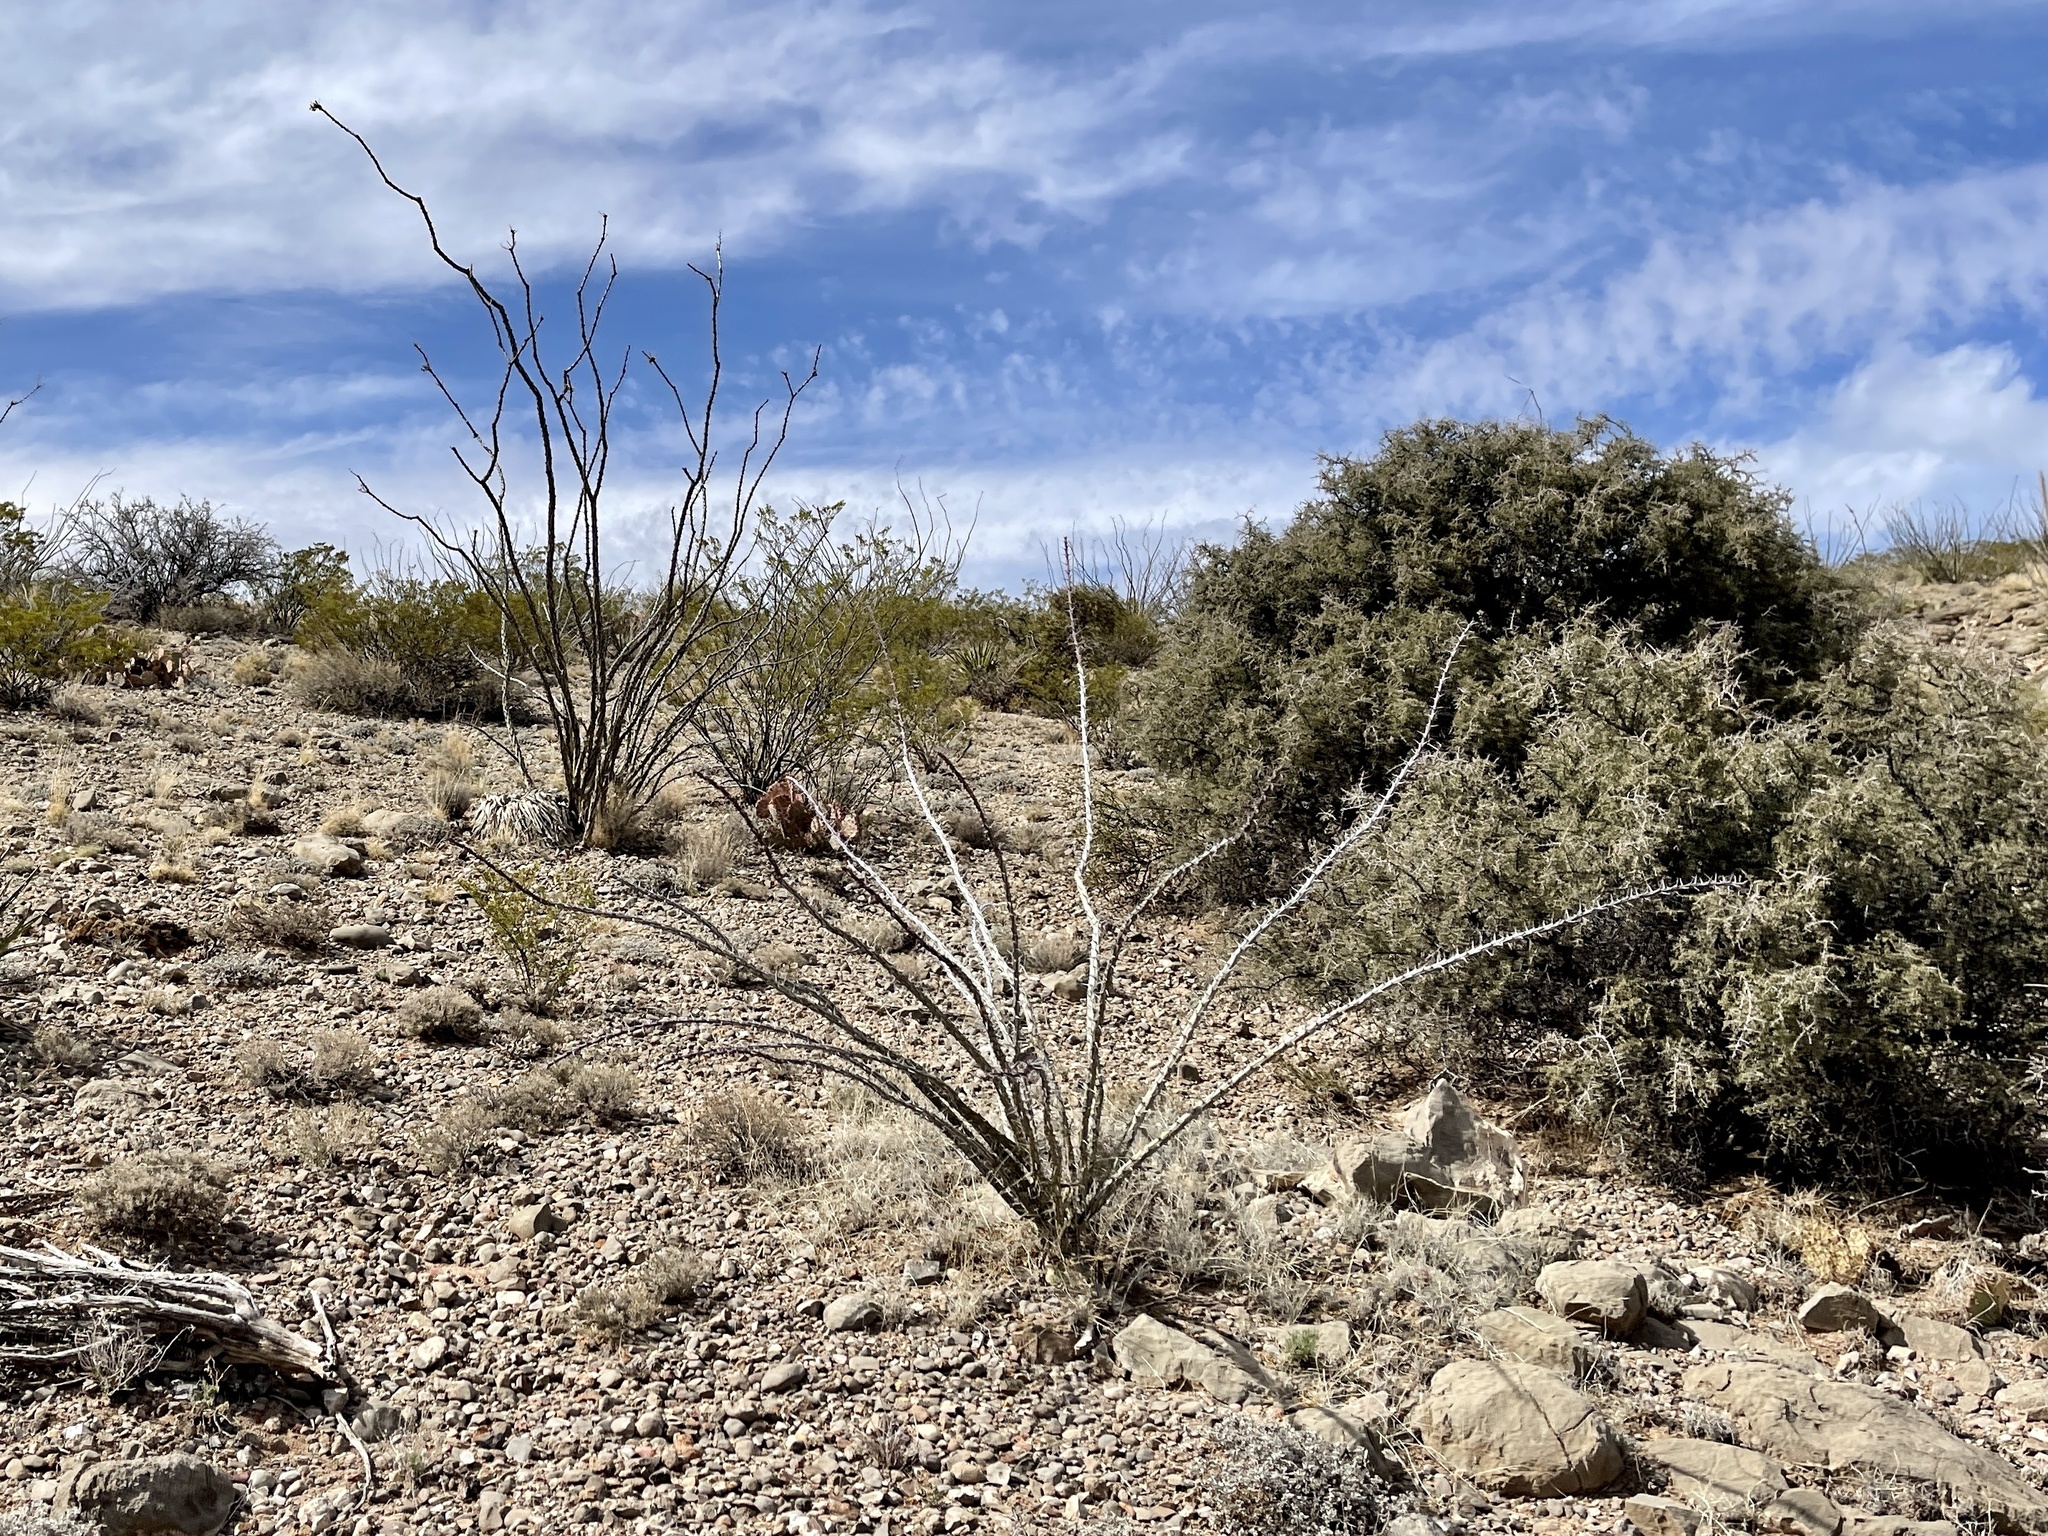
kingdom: Plantae
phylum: Tracheophyta
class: Magnoliopsida
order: Ericales
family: Fouquieriaceae
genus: Fouquieria
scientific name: Fouquieria splendens
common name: Vine-cactus
